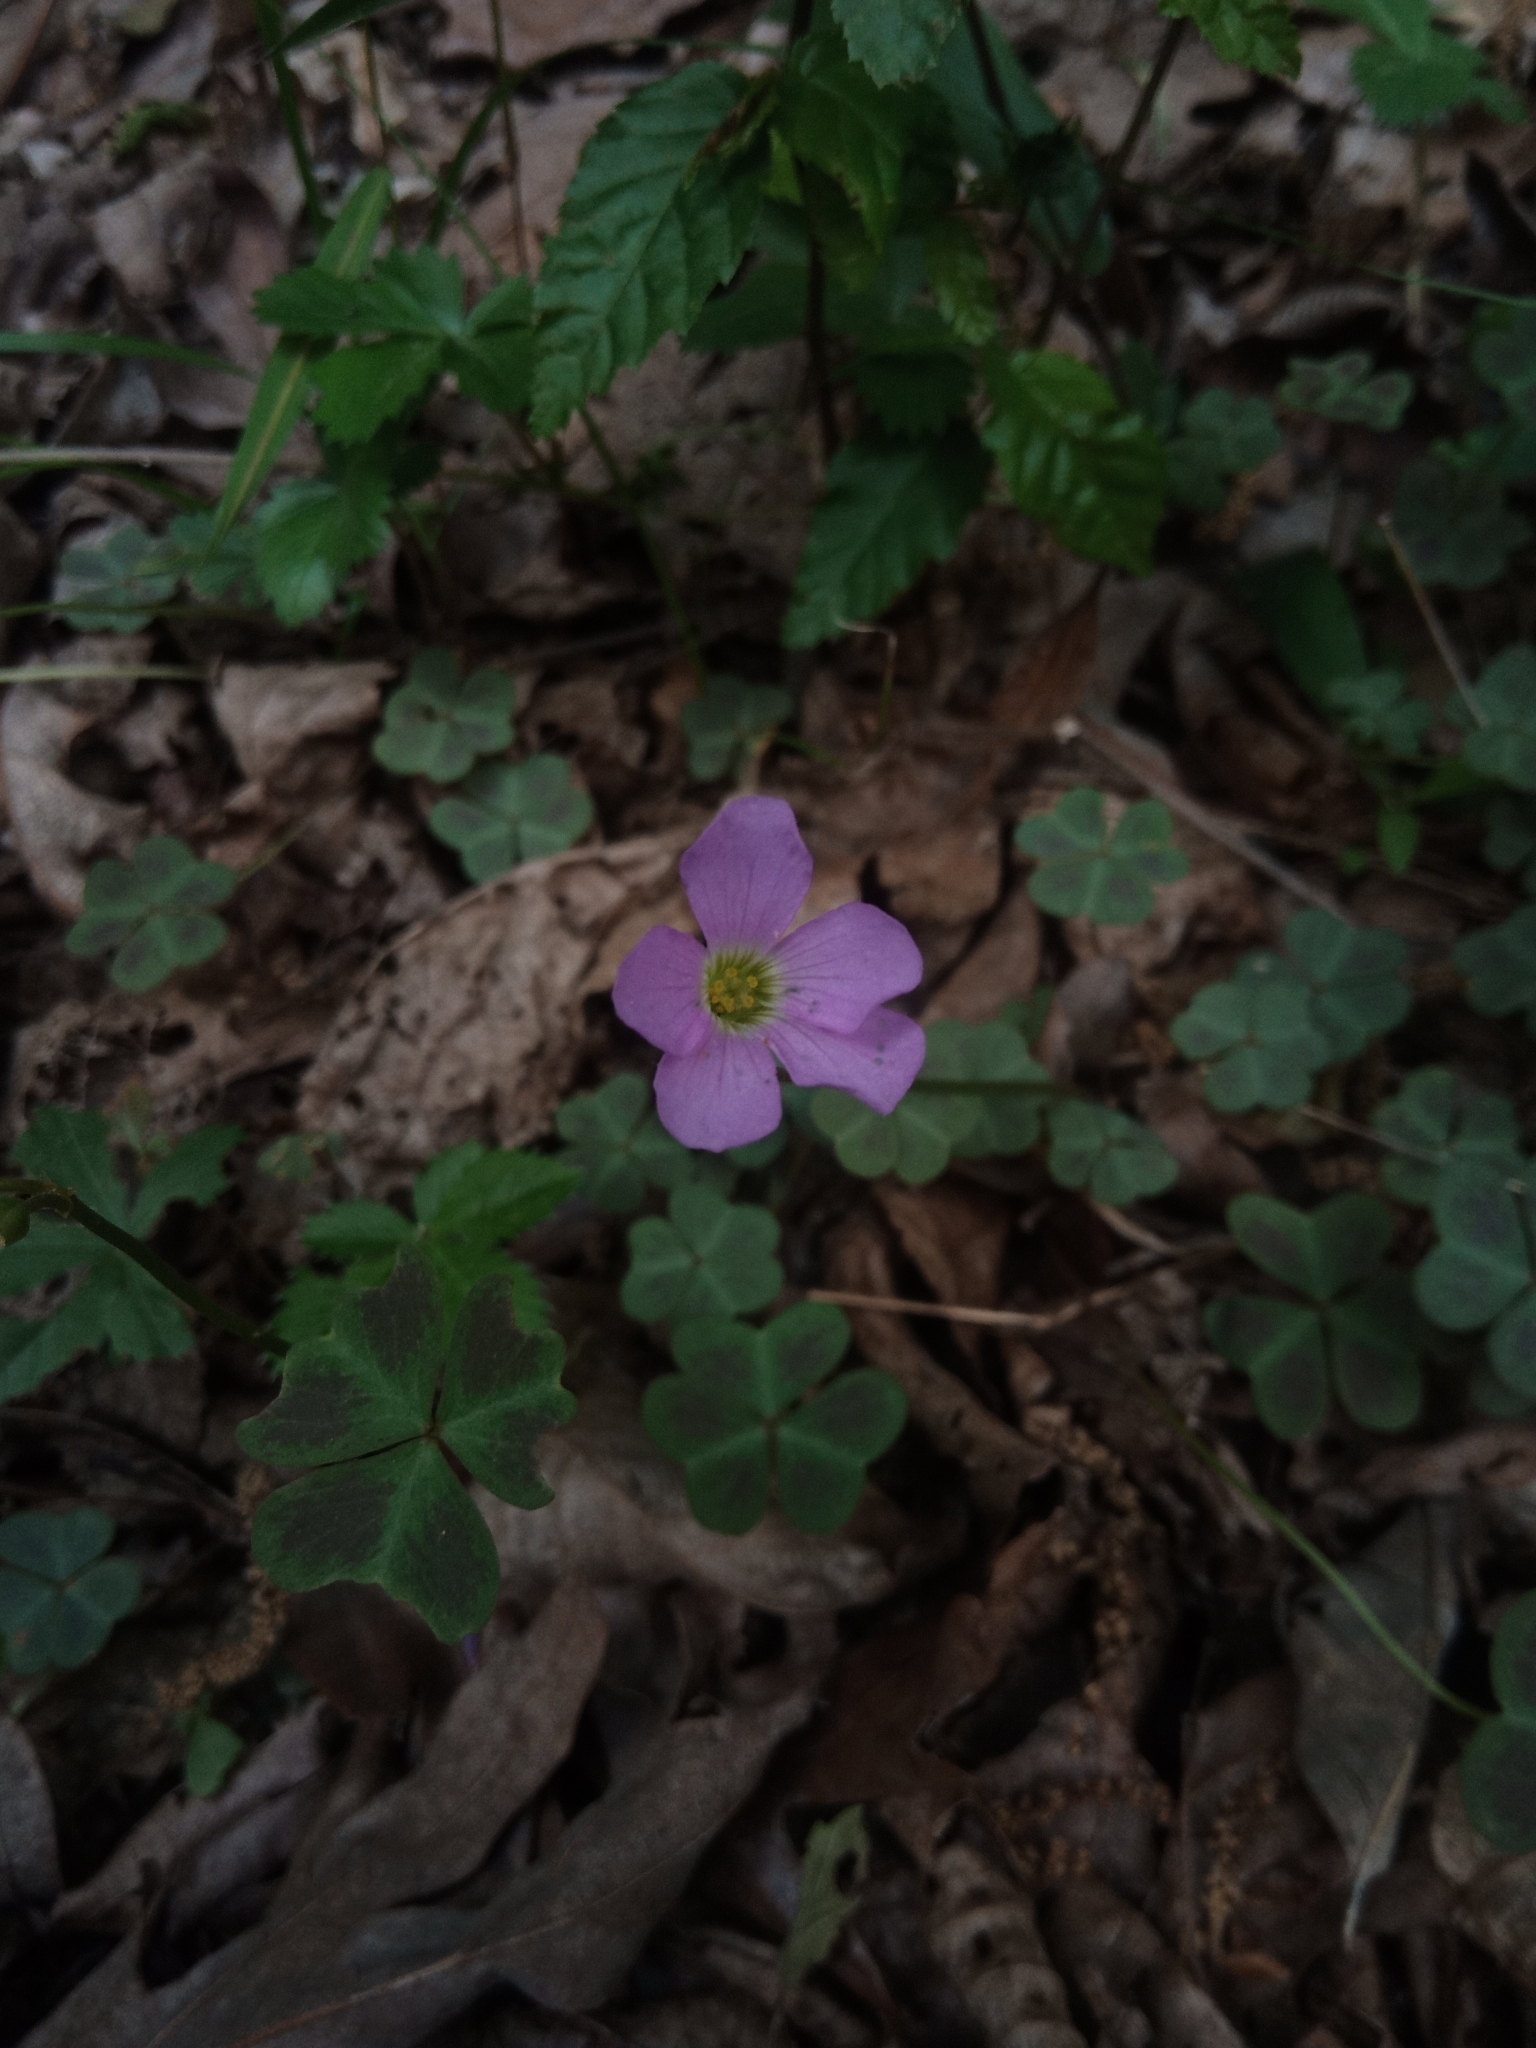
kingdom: Plantae
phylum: Tracheophyta
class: Magnoliopsida
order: Oxalidales
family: Oxalidaceae
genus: Oxalis
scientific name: Oxalis violacea
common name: Violet wood-sorrel
